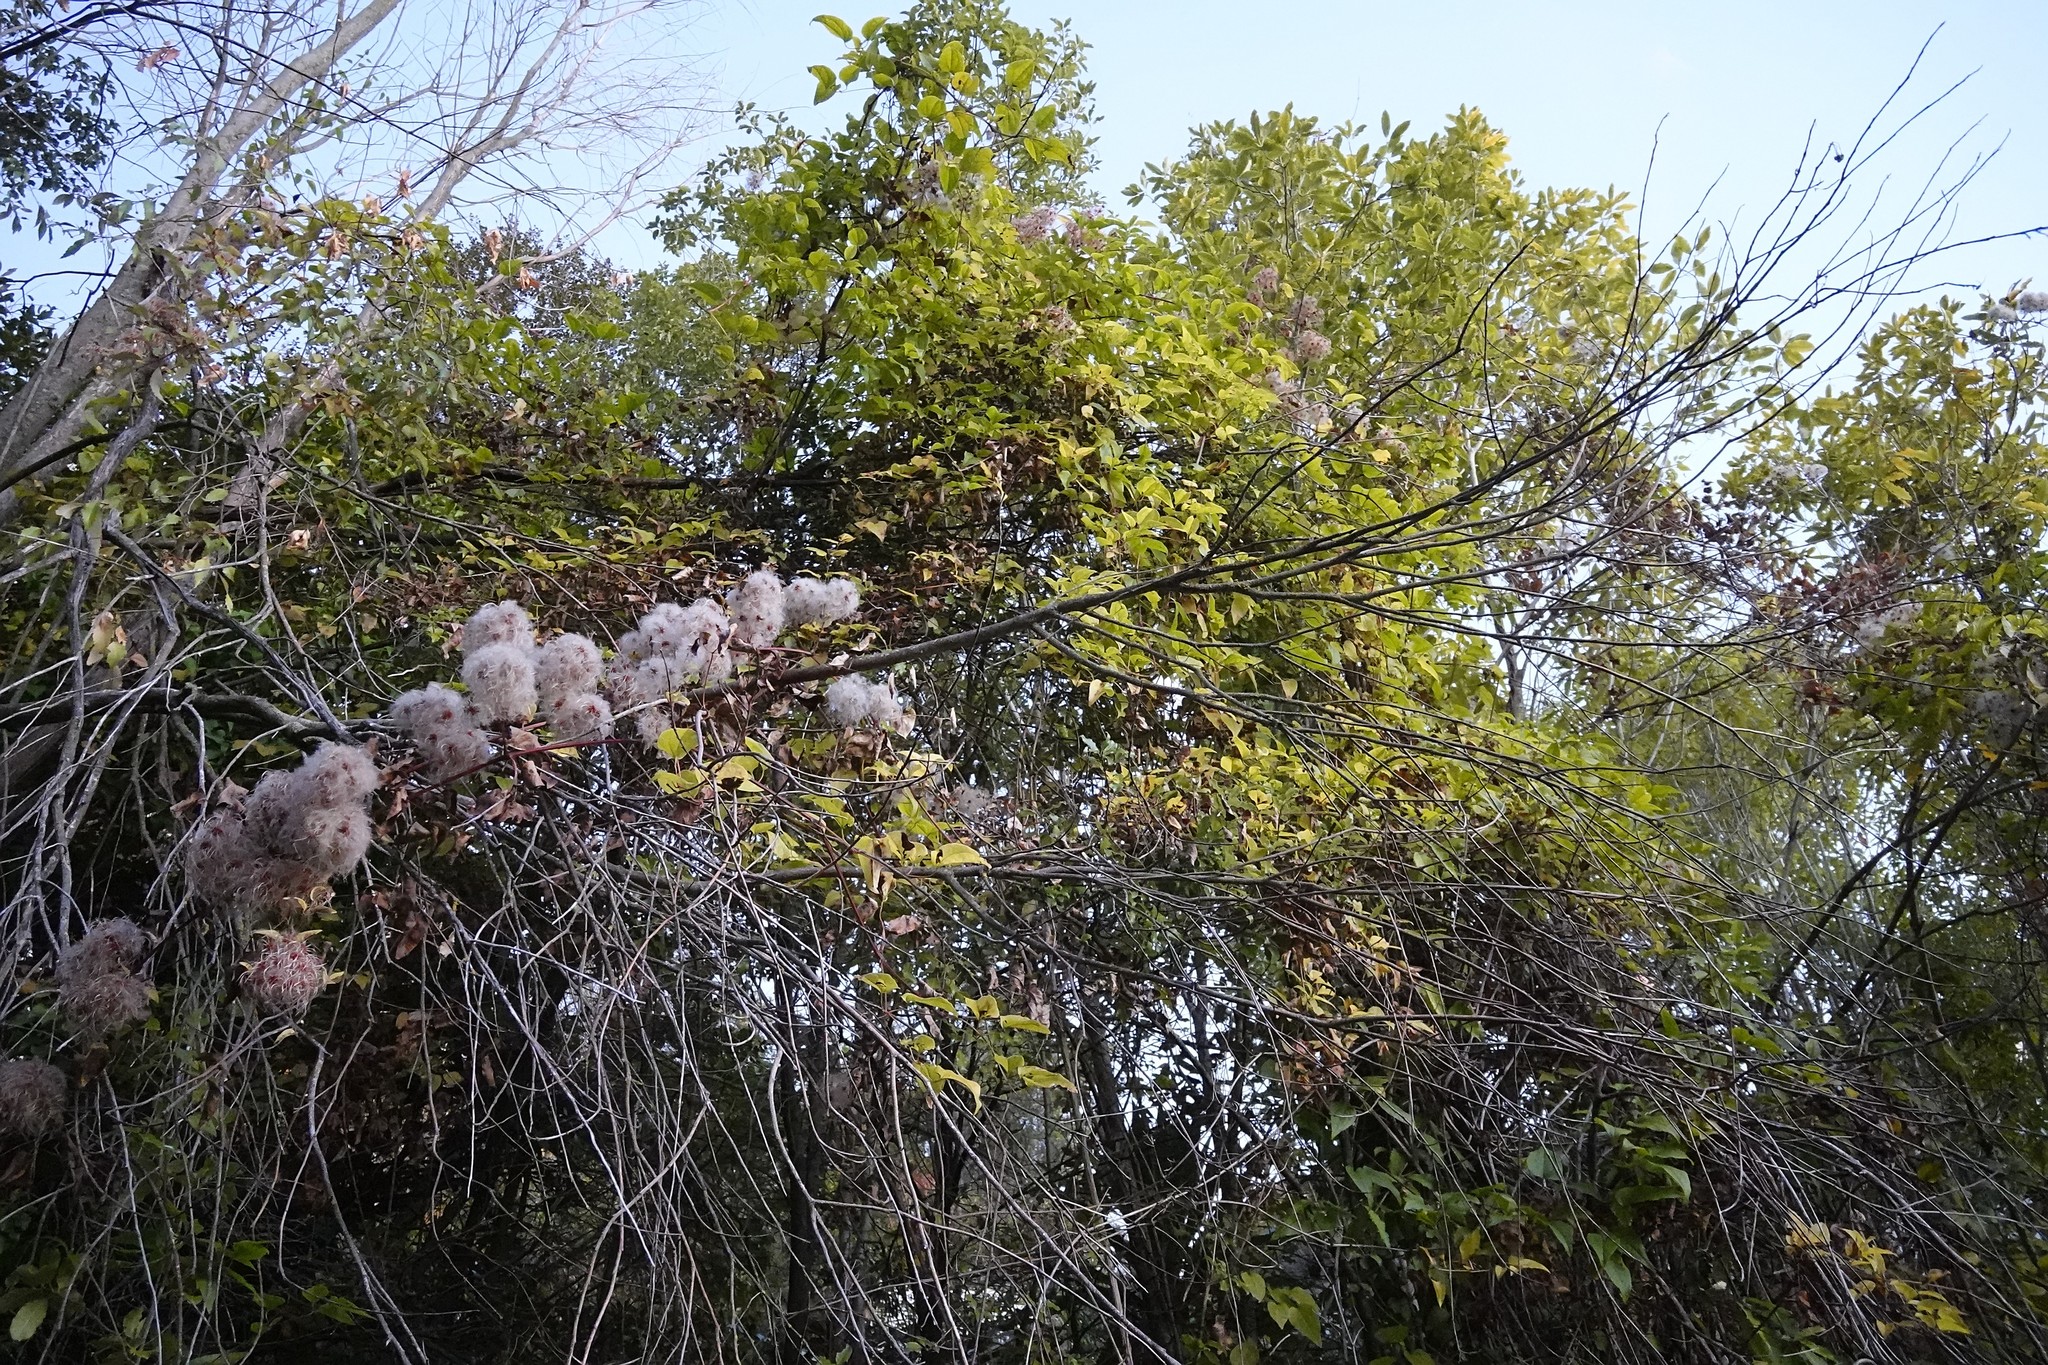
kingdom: Plantae
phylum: Tracheophyta
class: Magnoliopsida
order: Ranunculales
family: Ranunculaceae
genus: Clematis
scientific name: Clematis vitalba
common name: Evergreen clematis
